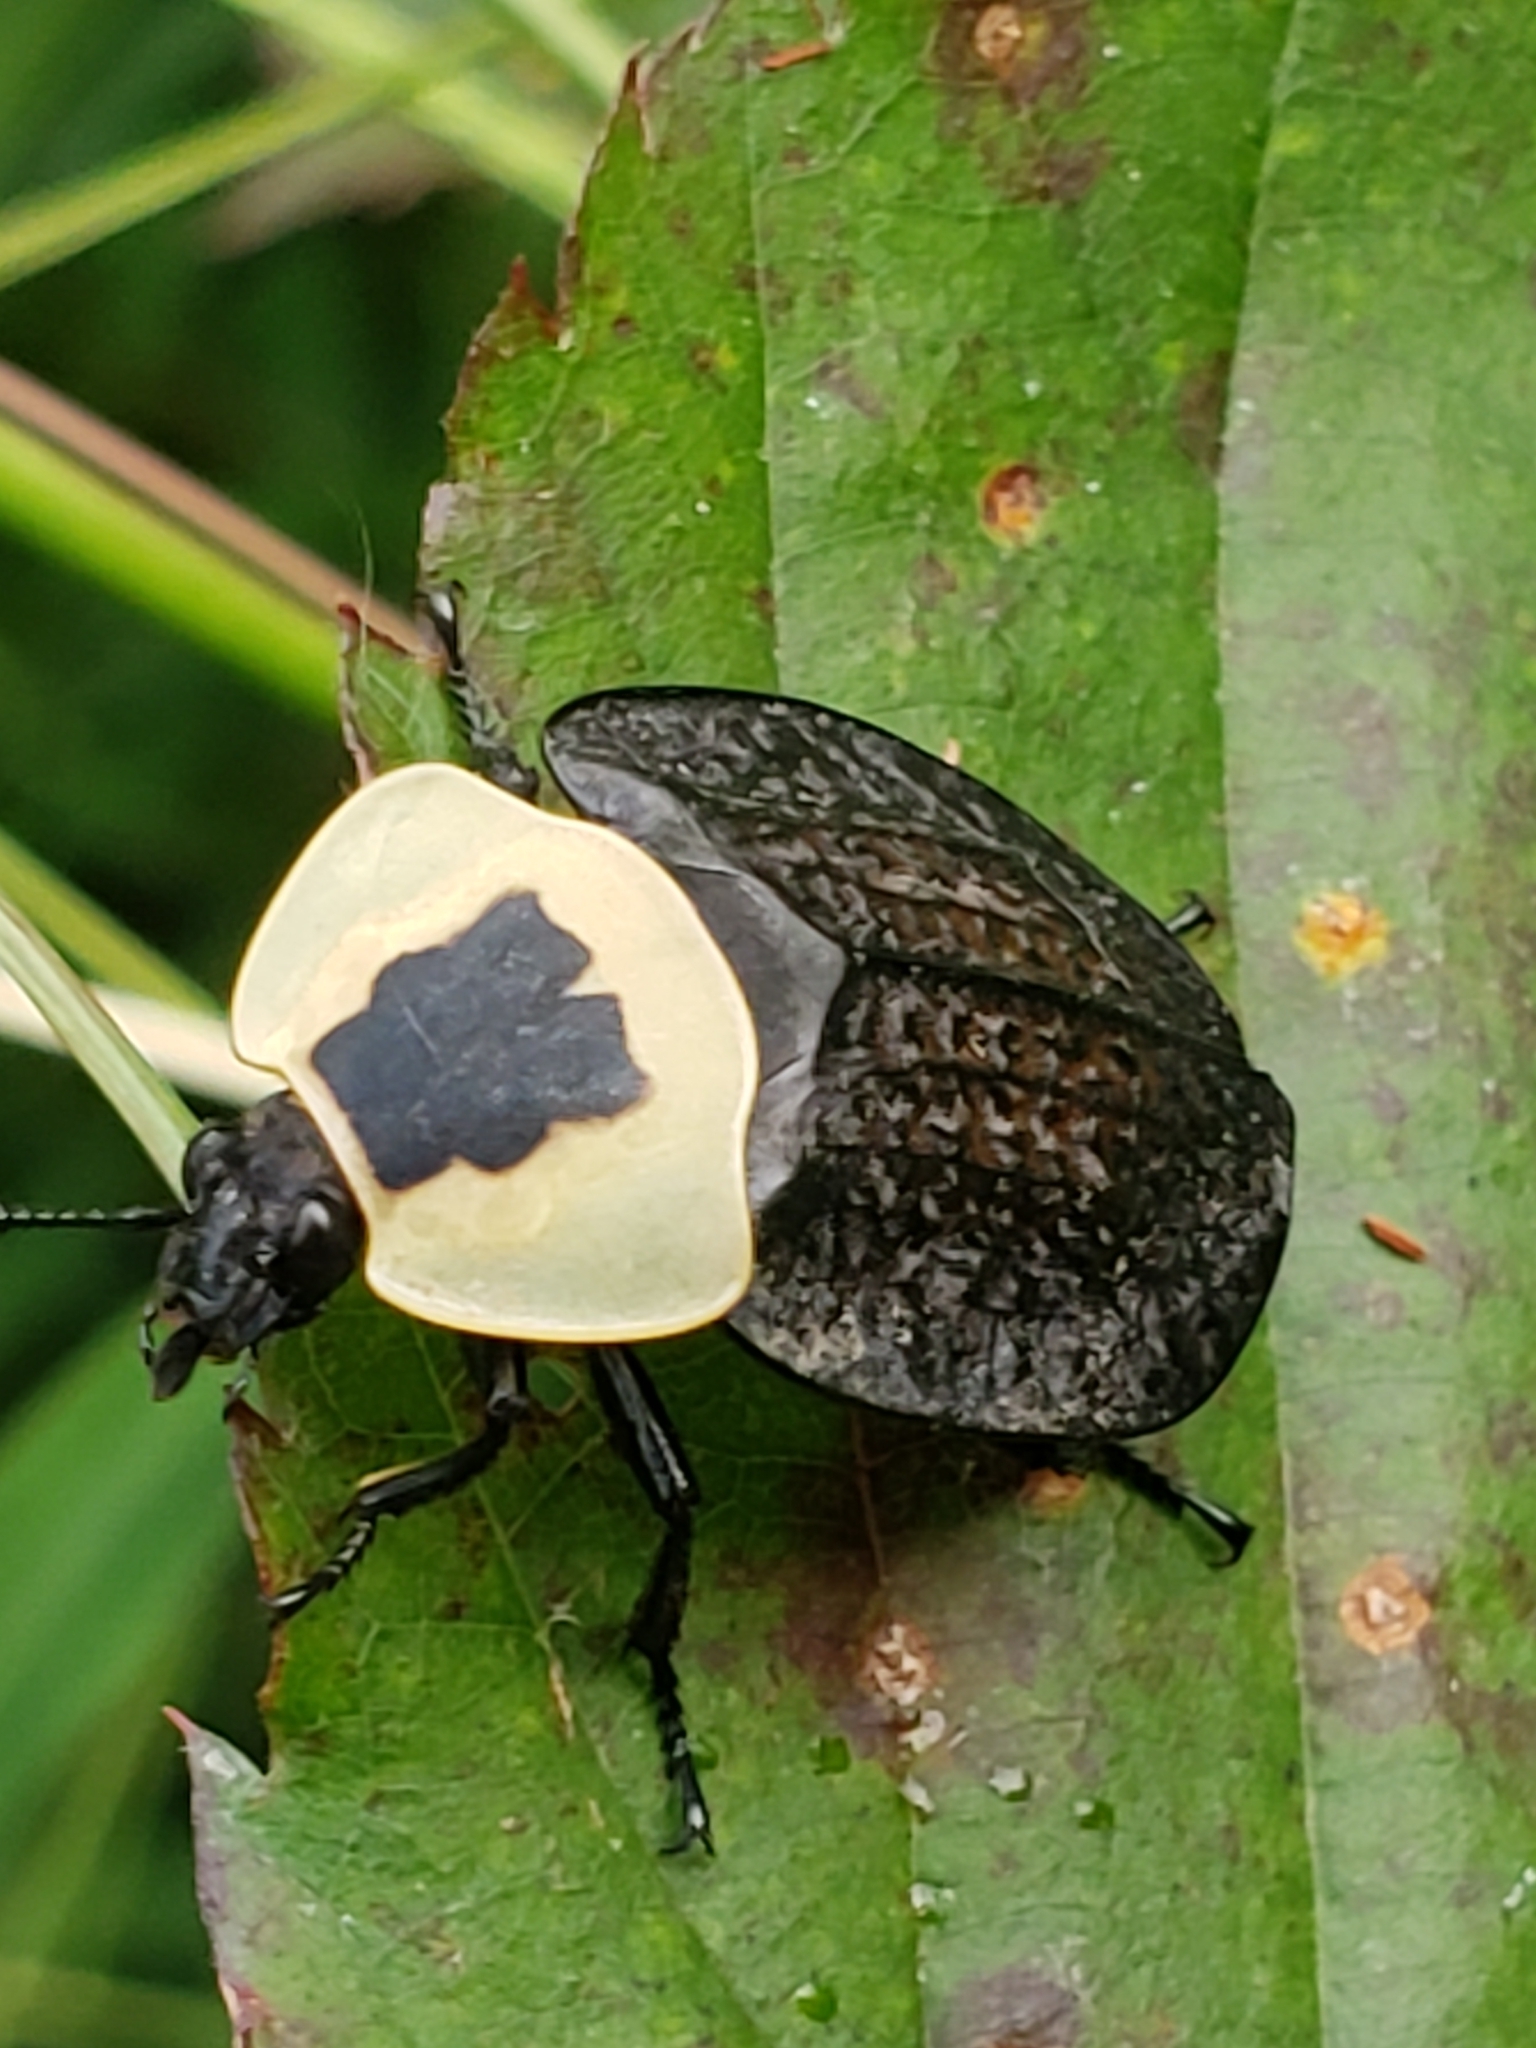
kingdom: Animalia
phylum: Arthropoda
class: Insecta
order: Coleoptera
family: Staphylinidae
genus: Necrophila
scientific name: Necrophila americana
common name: American carrion beetle
